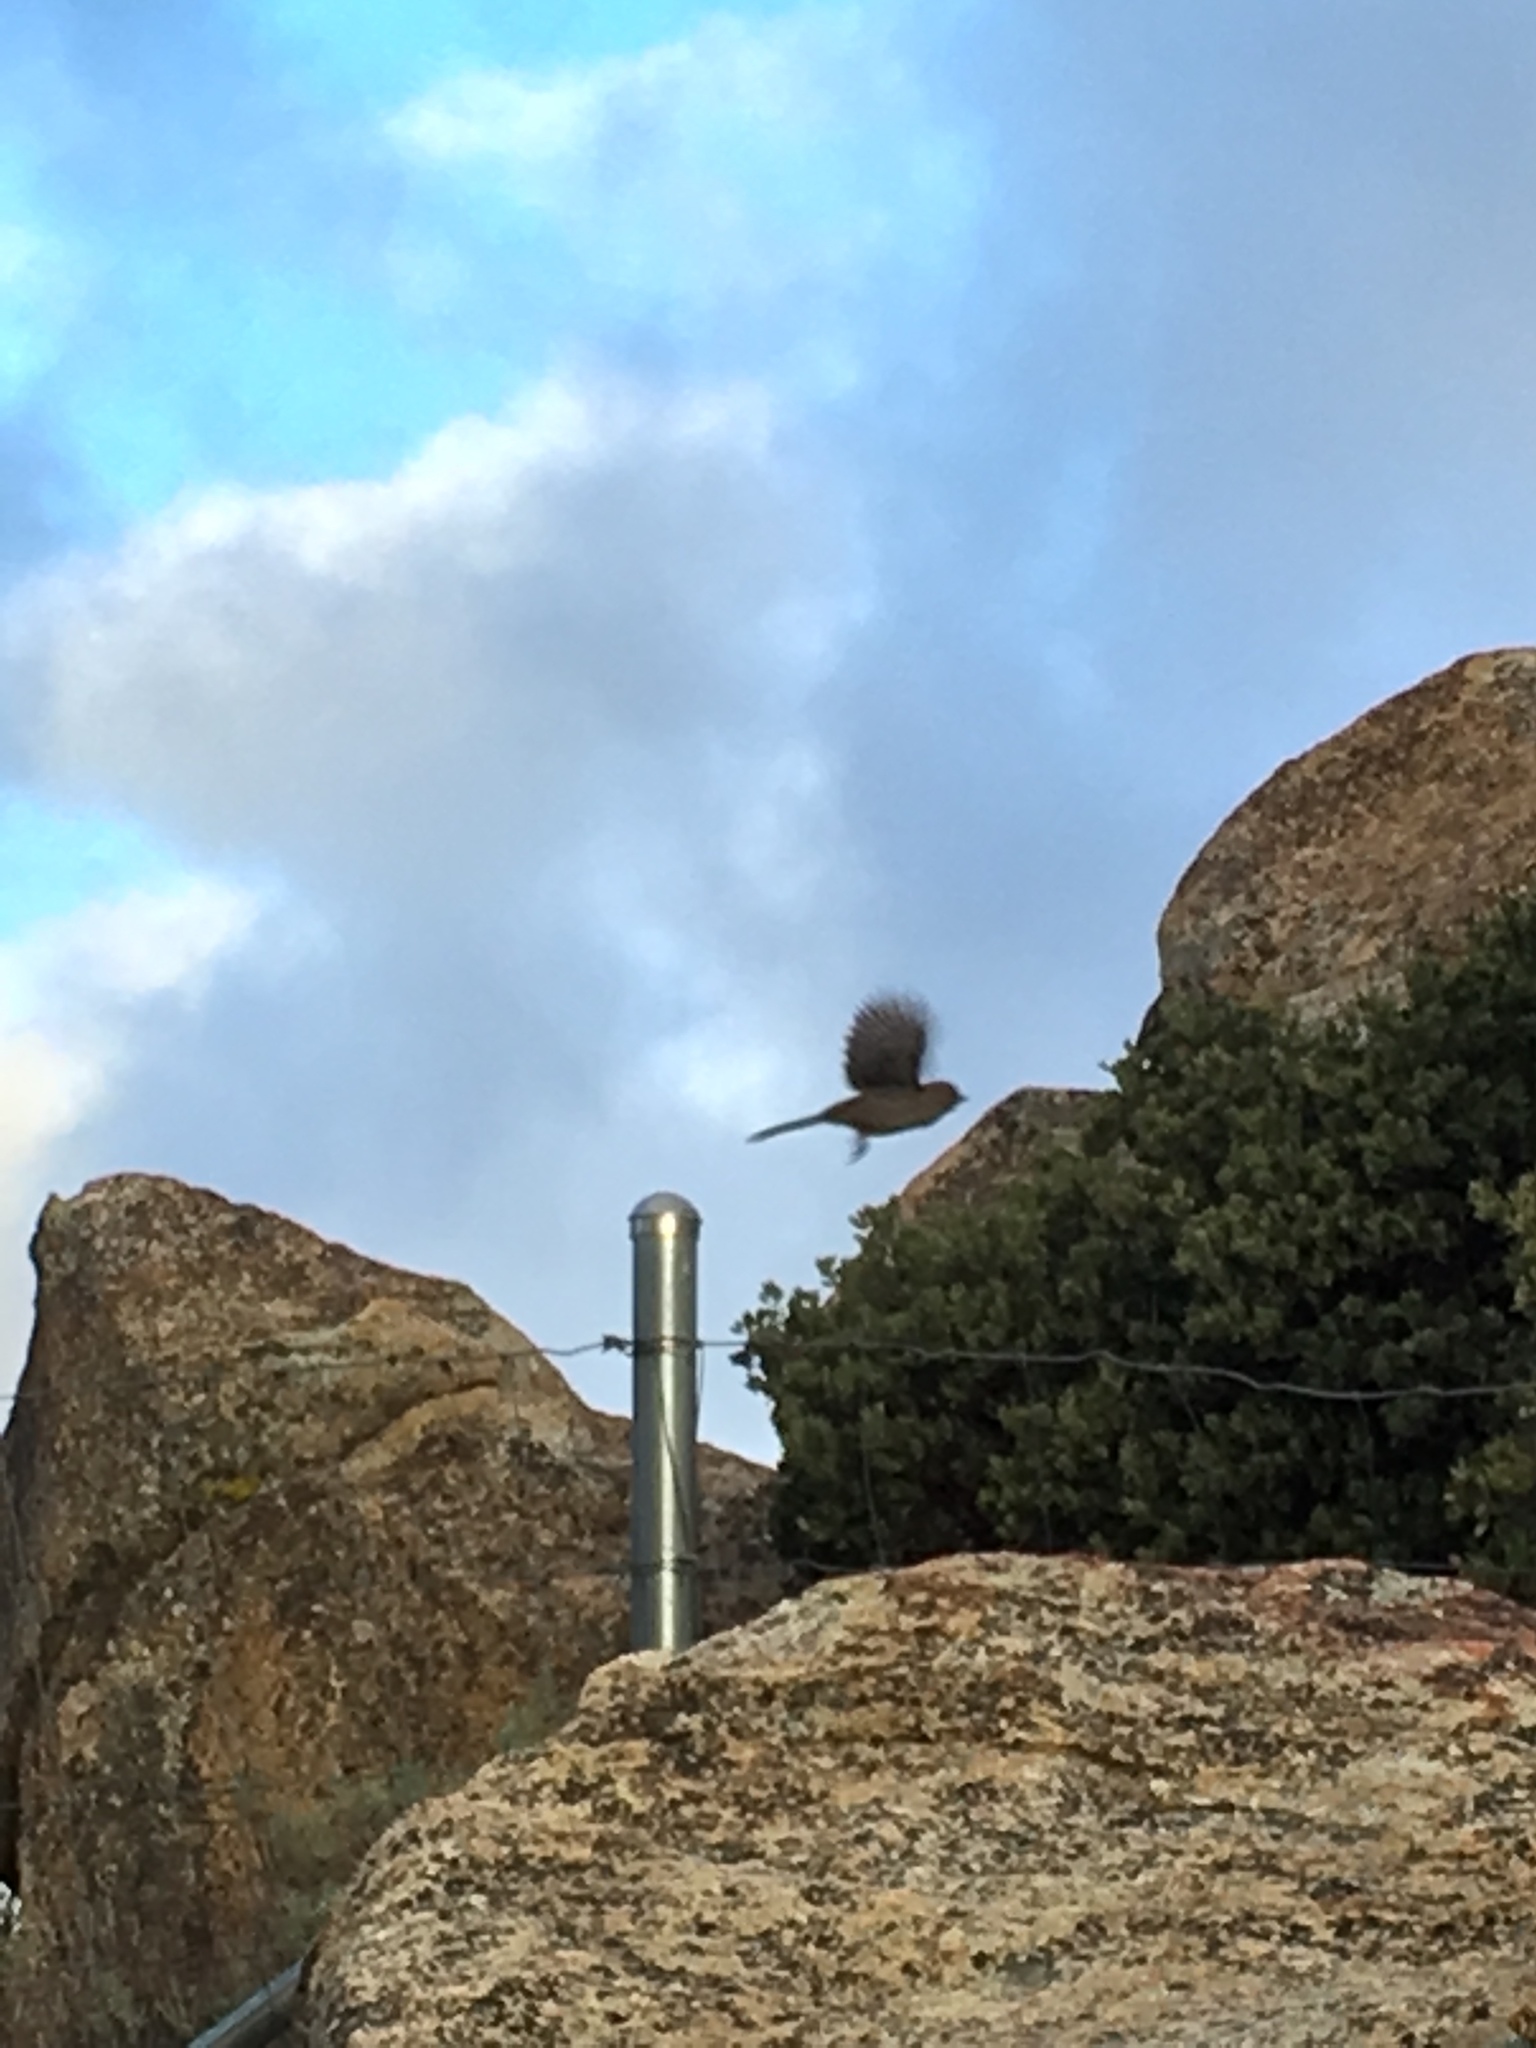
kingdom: Animalia
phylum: Chordata
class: Aves
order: Passeriformes
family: Passerellidae
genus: Melozone
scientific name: Melozone crissalis
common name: California towhee
